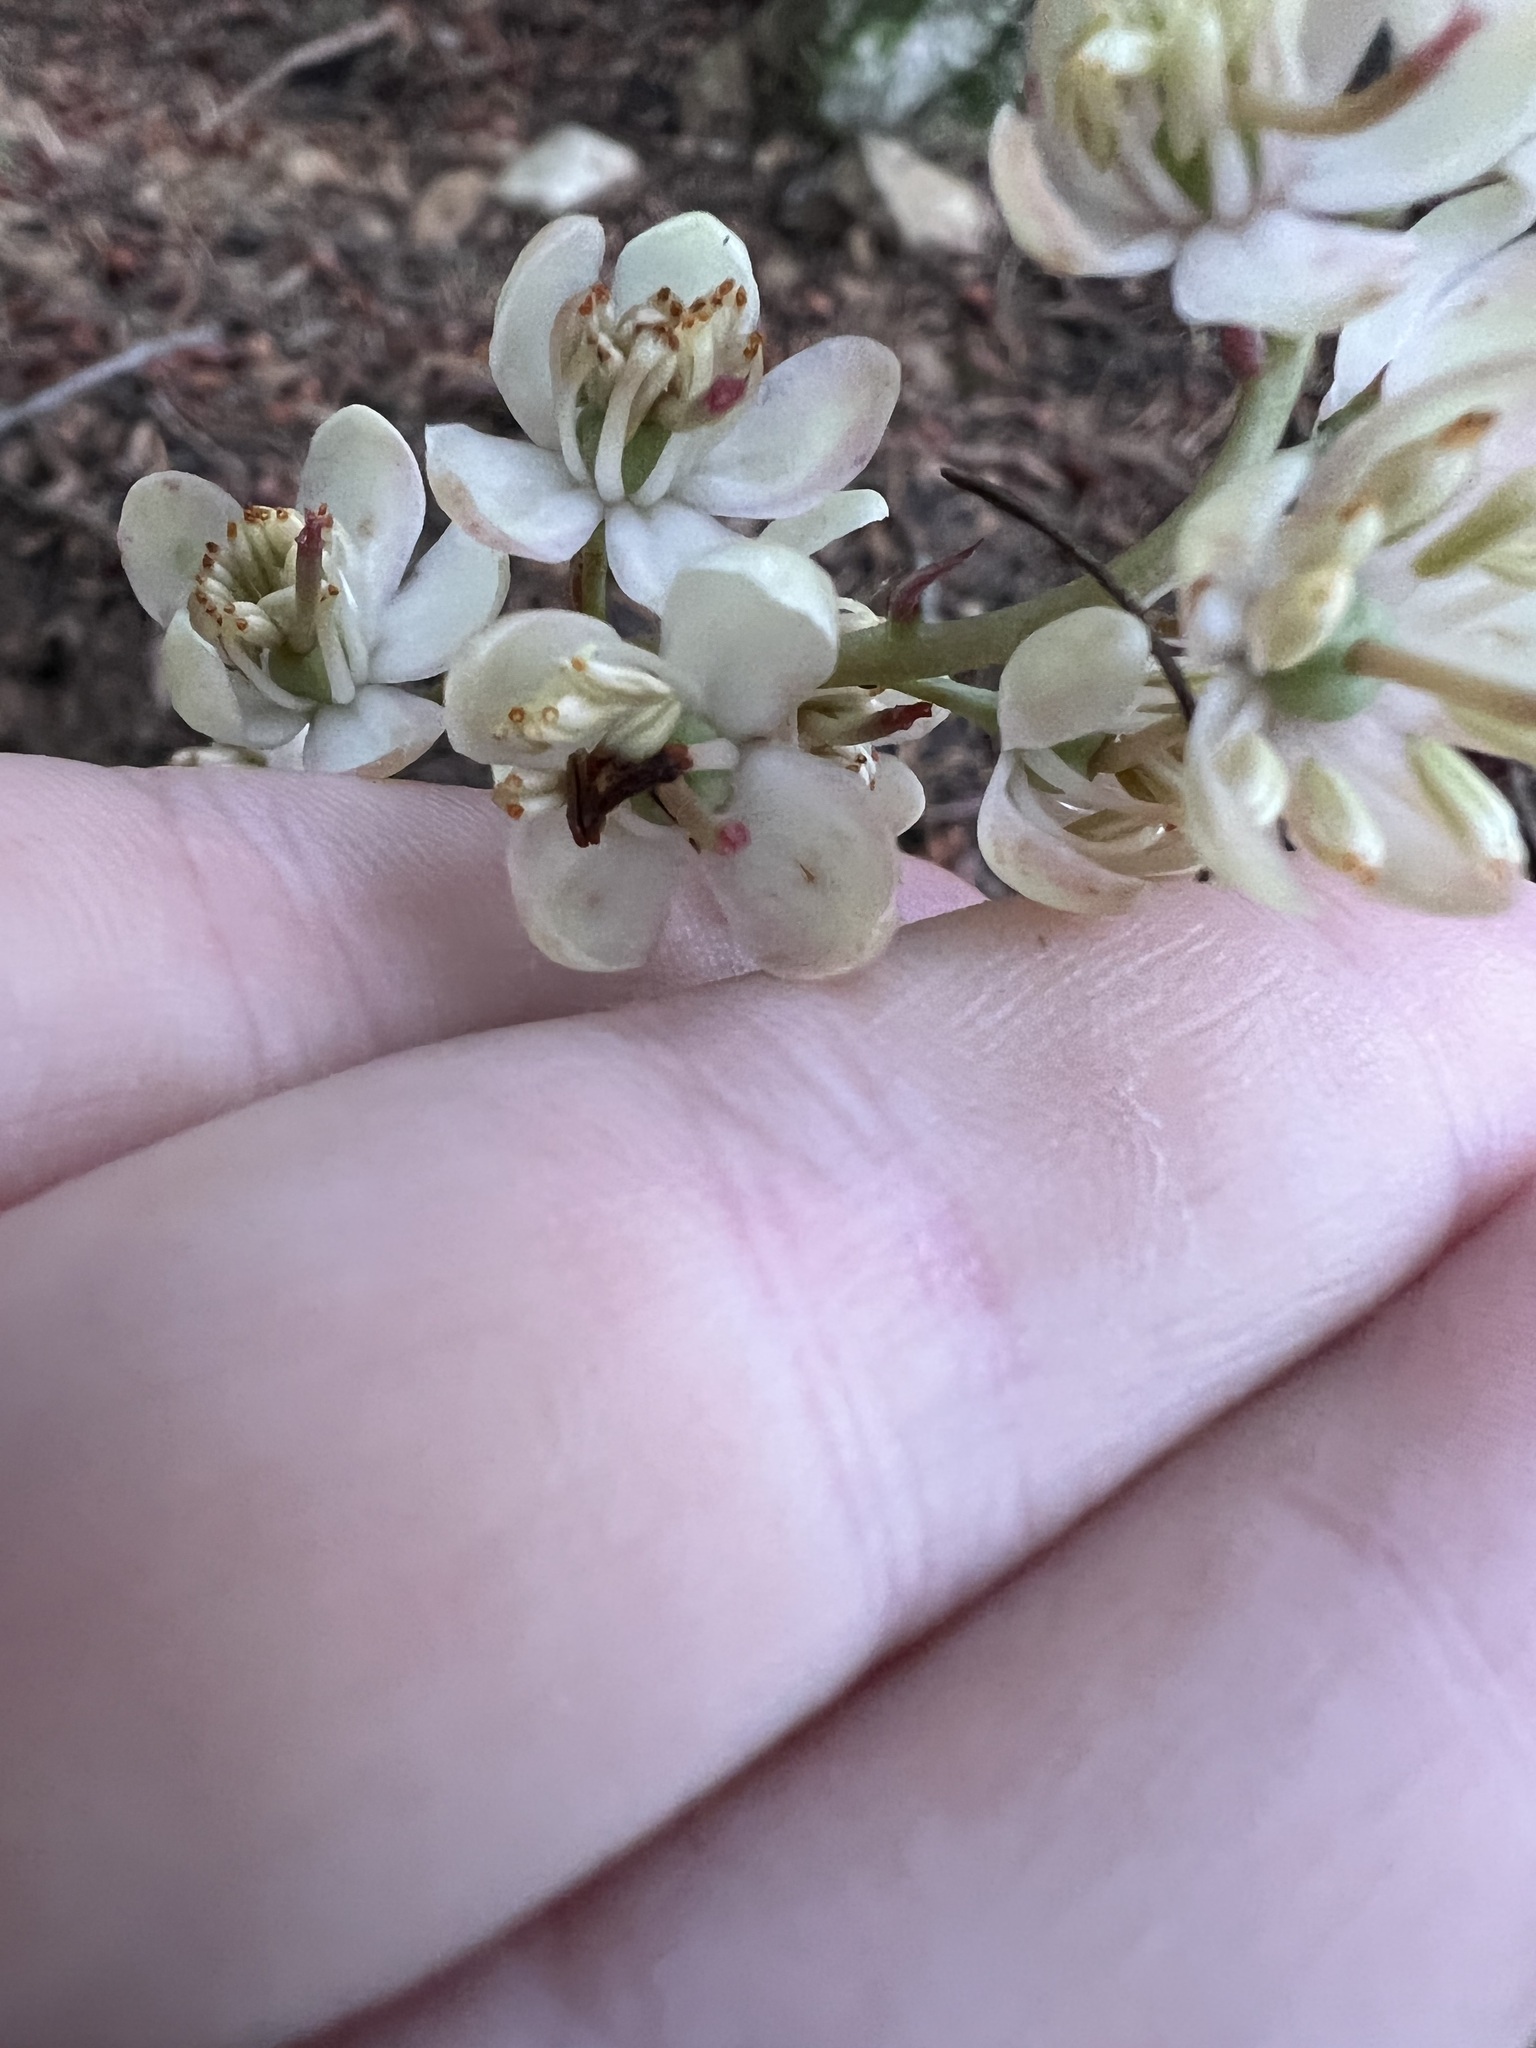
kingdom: Plantae
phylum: Tracheophyta
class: Magnoliopsida
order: Ericales
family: Ericaceae
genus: Pyrola
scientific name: Pyrola aphylla
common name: Leafless wintergreen
